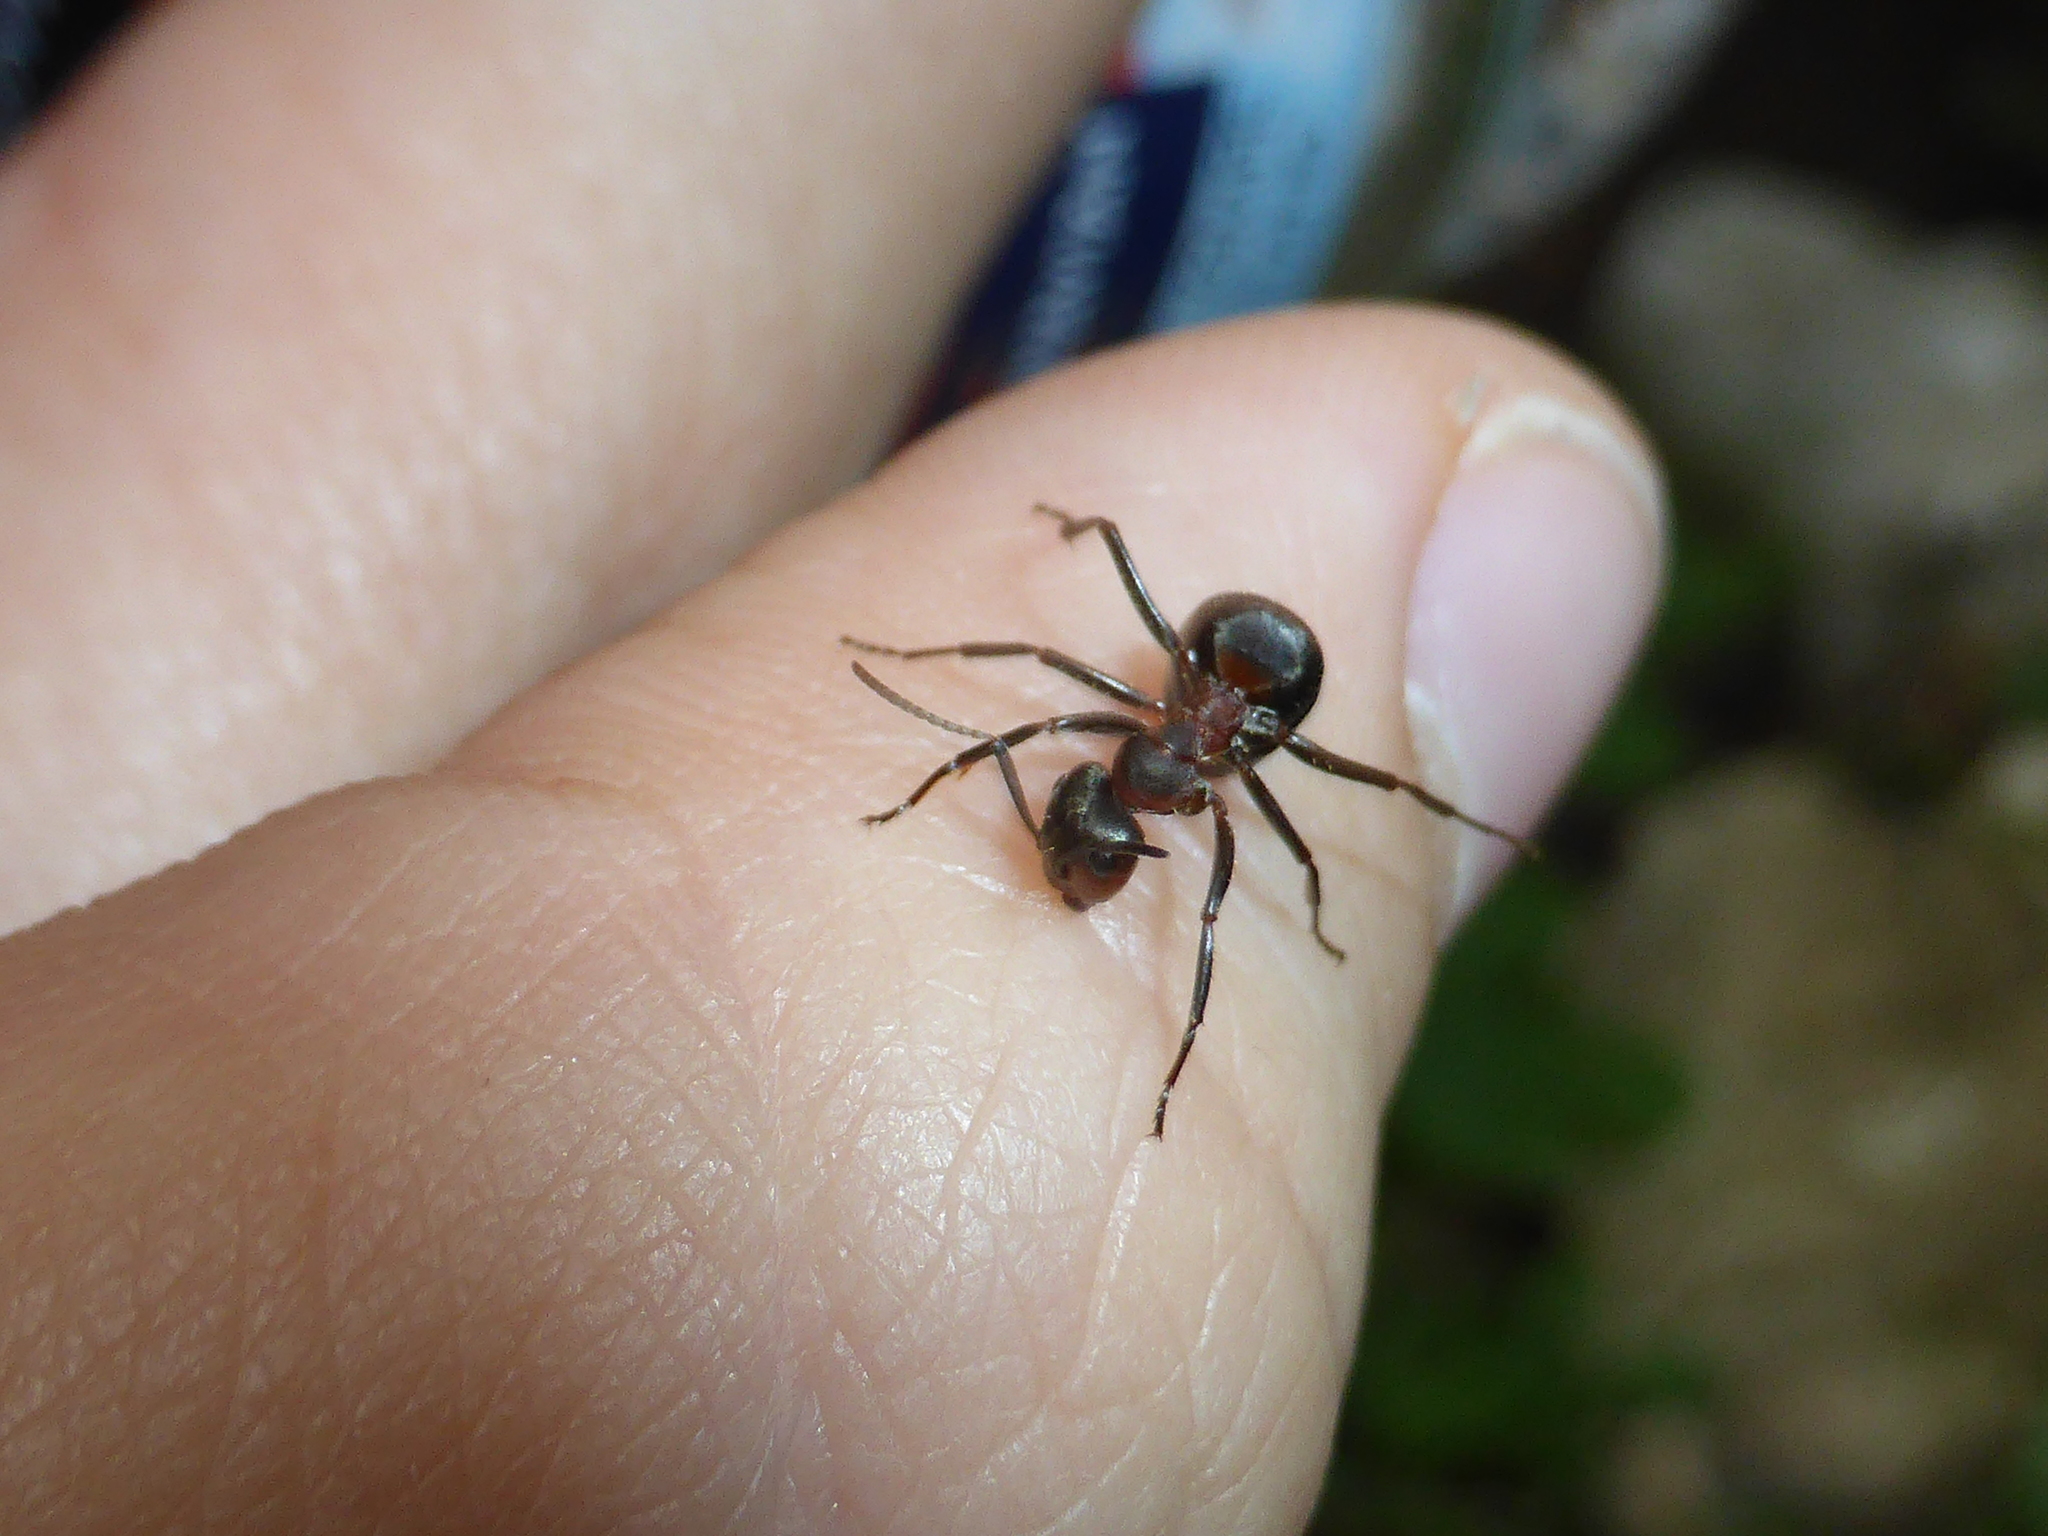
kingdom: Animalia
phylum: Arthropoda
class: Insecta
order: Hymenoptera
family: Formicidae
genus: Formica
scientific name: Formica
